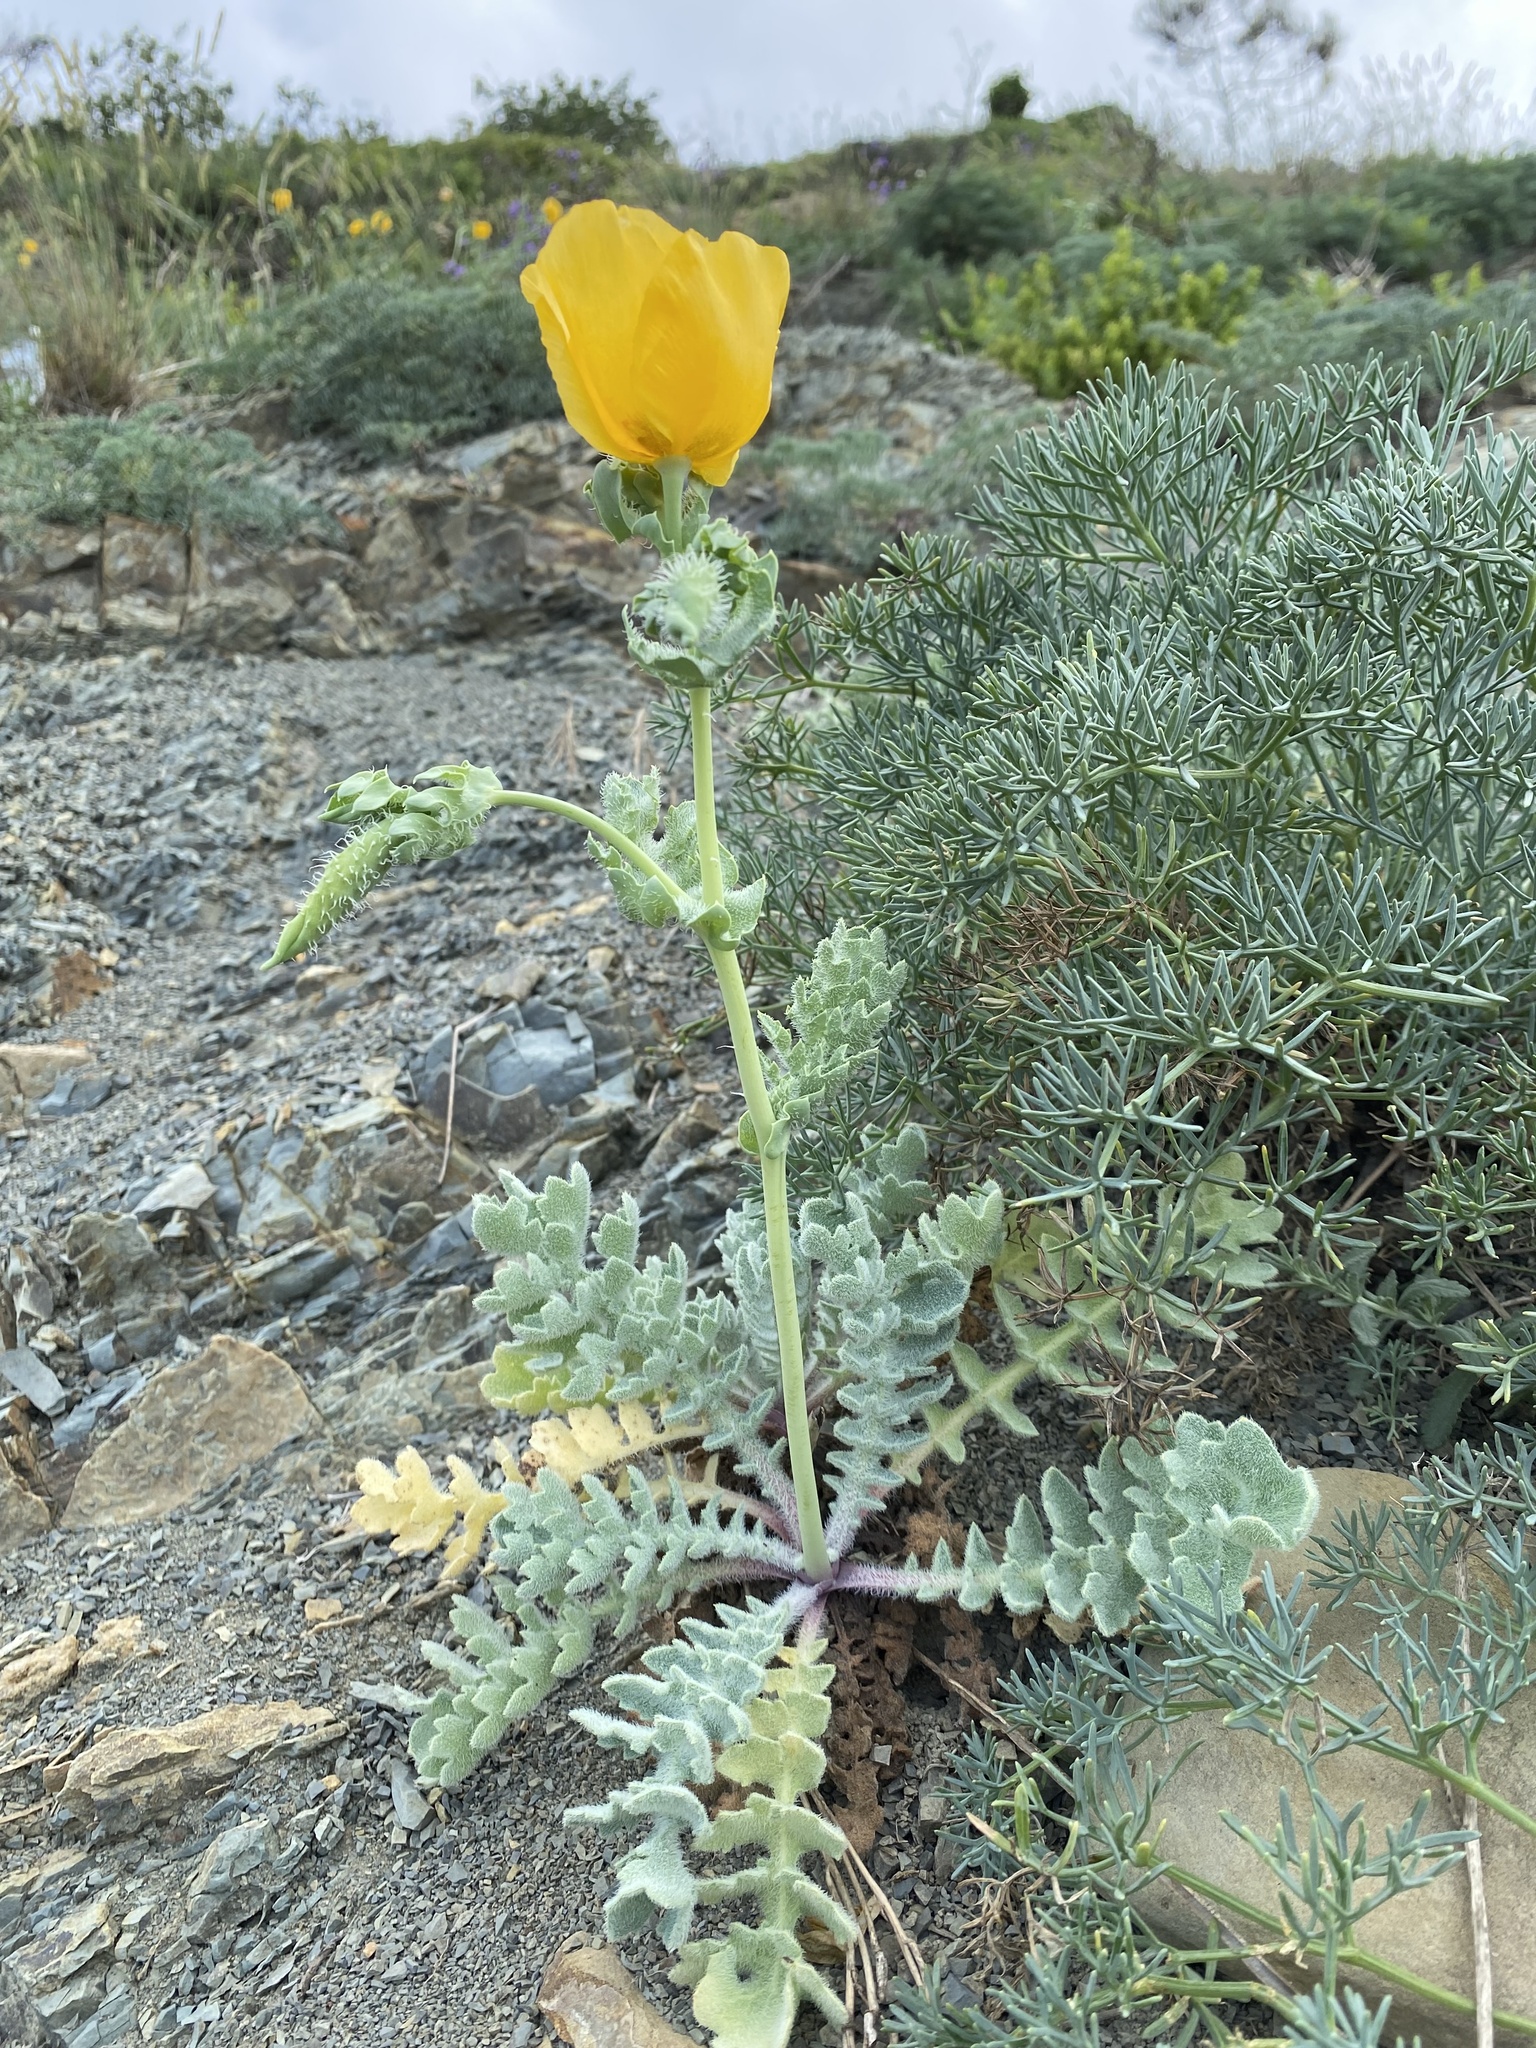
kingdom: Plantae
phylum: Tracheophyta
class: Magnoliopsida
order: Ranunculales
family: Papaveraceae
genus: Glaucium
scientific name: Glaucium flavum
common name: Yellow horned-poppy
